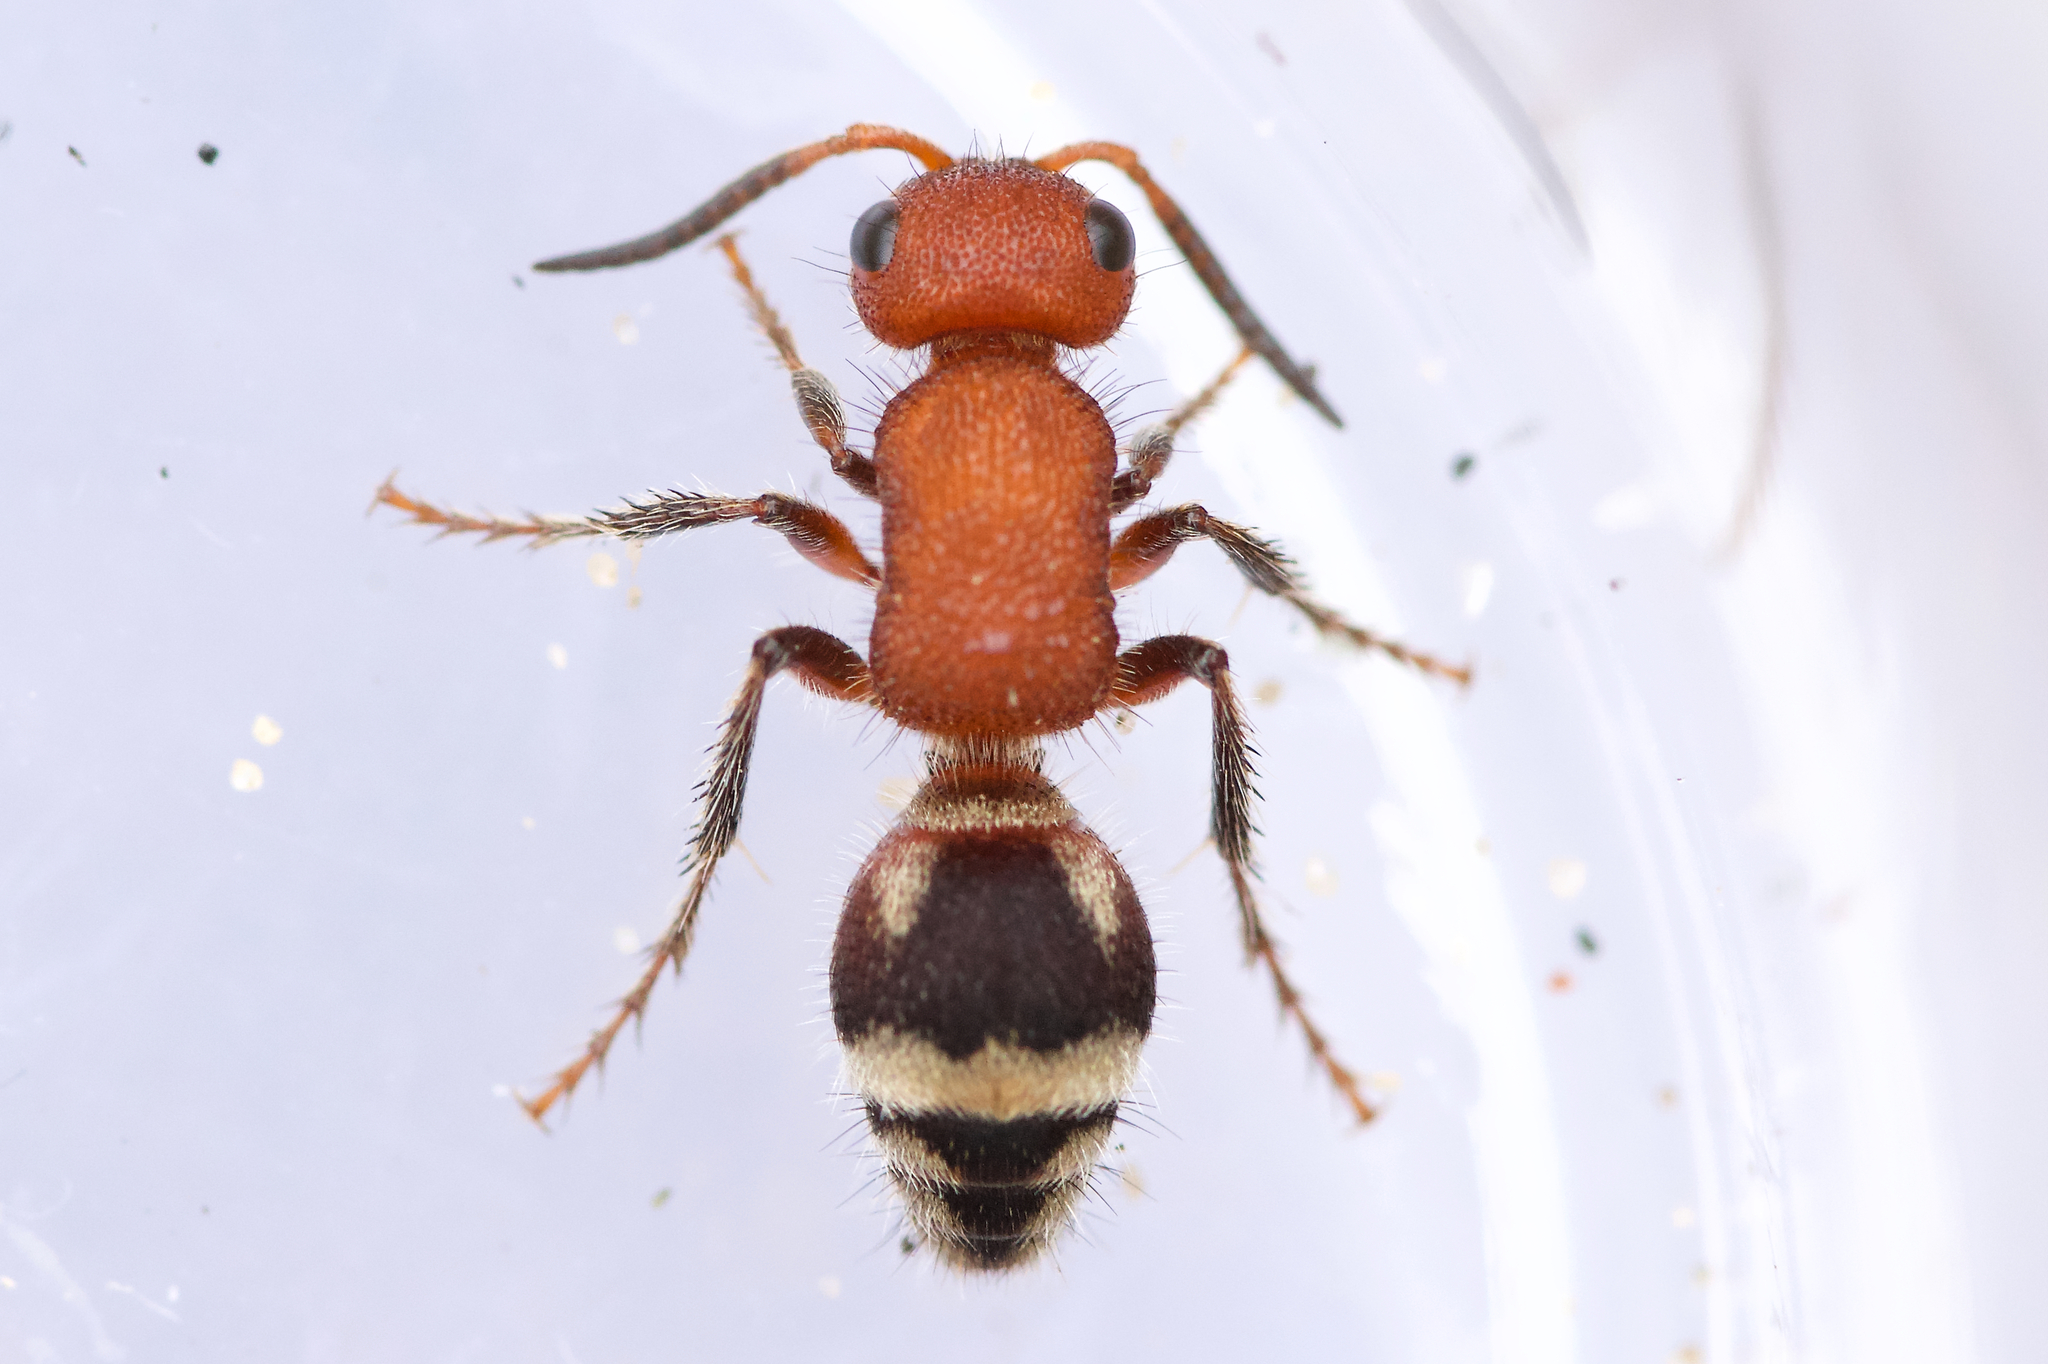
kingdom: Animalia
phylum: Arthropoda
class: Insecta
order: Hymenoptera
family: Mutillidae
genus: Timulla
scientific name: Timulla
